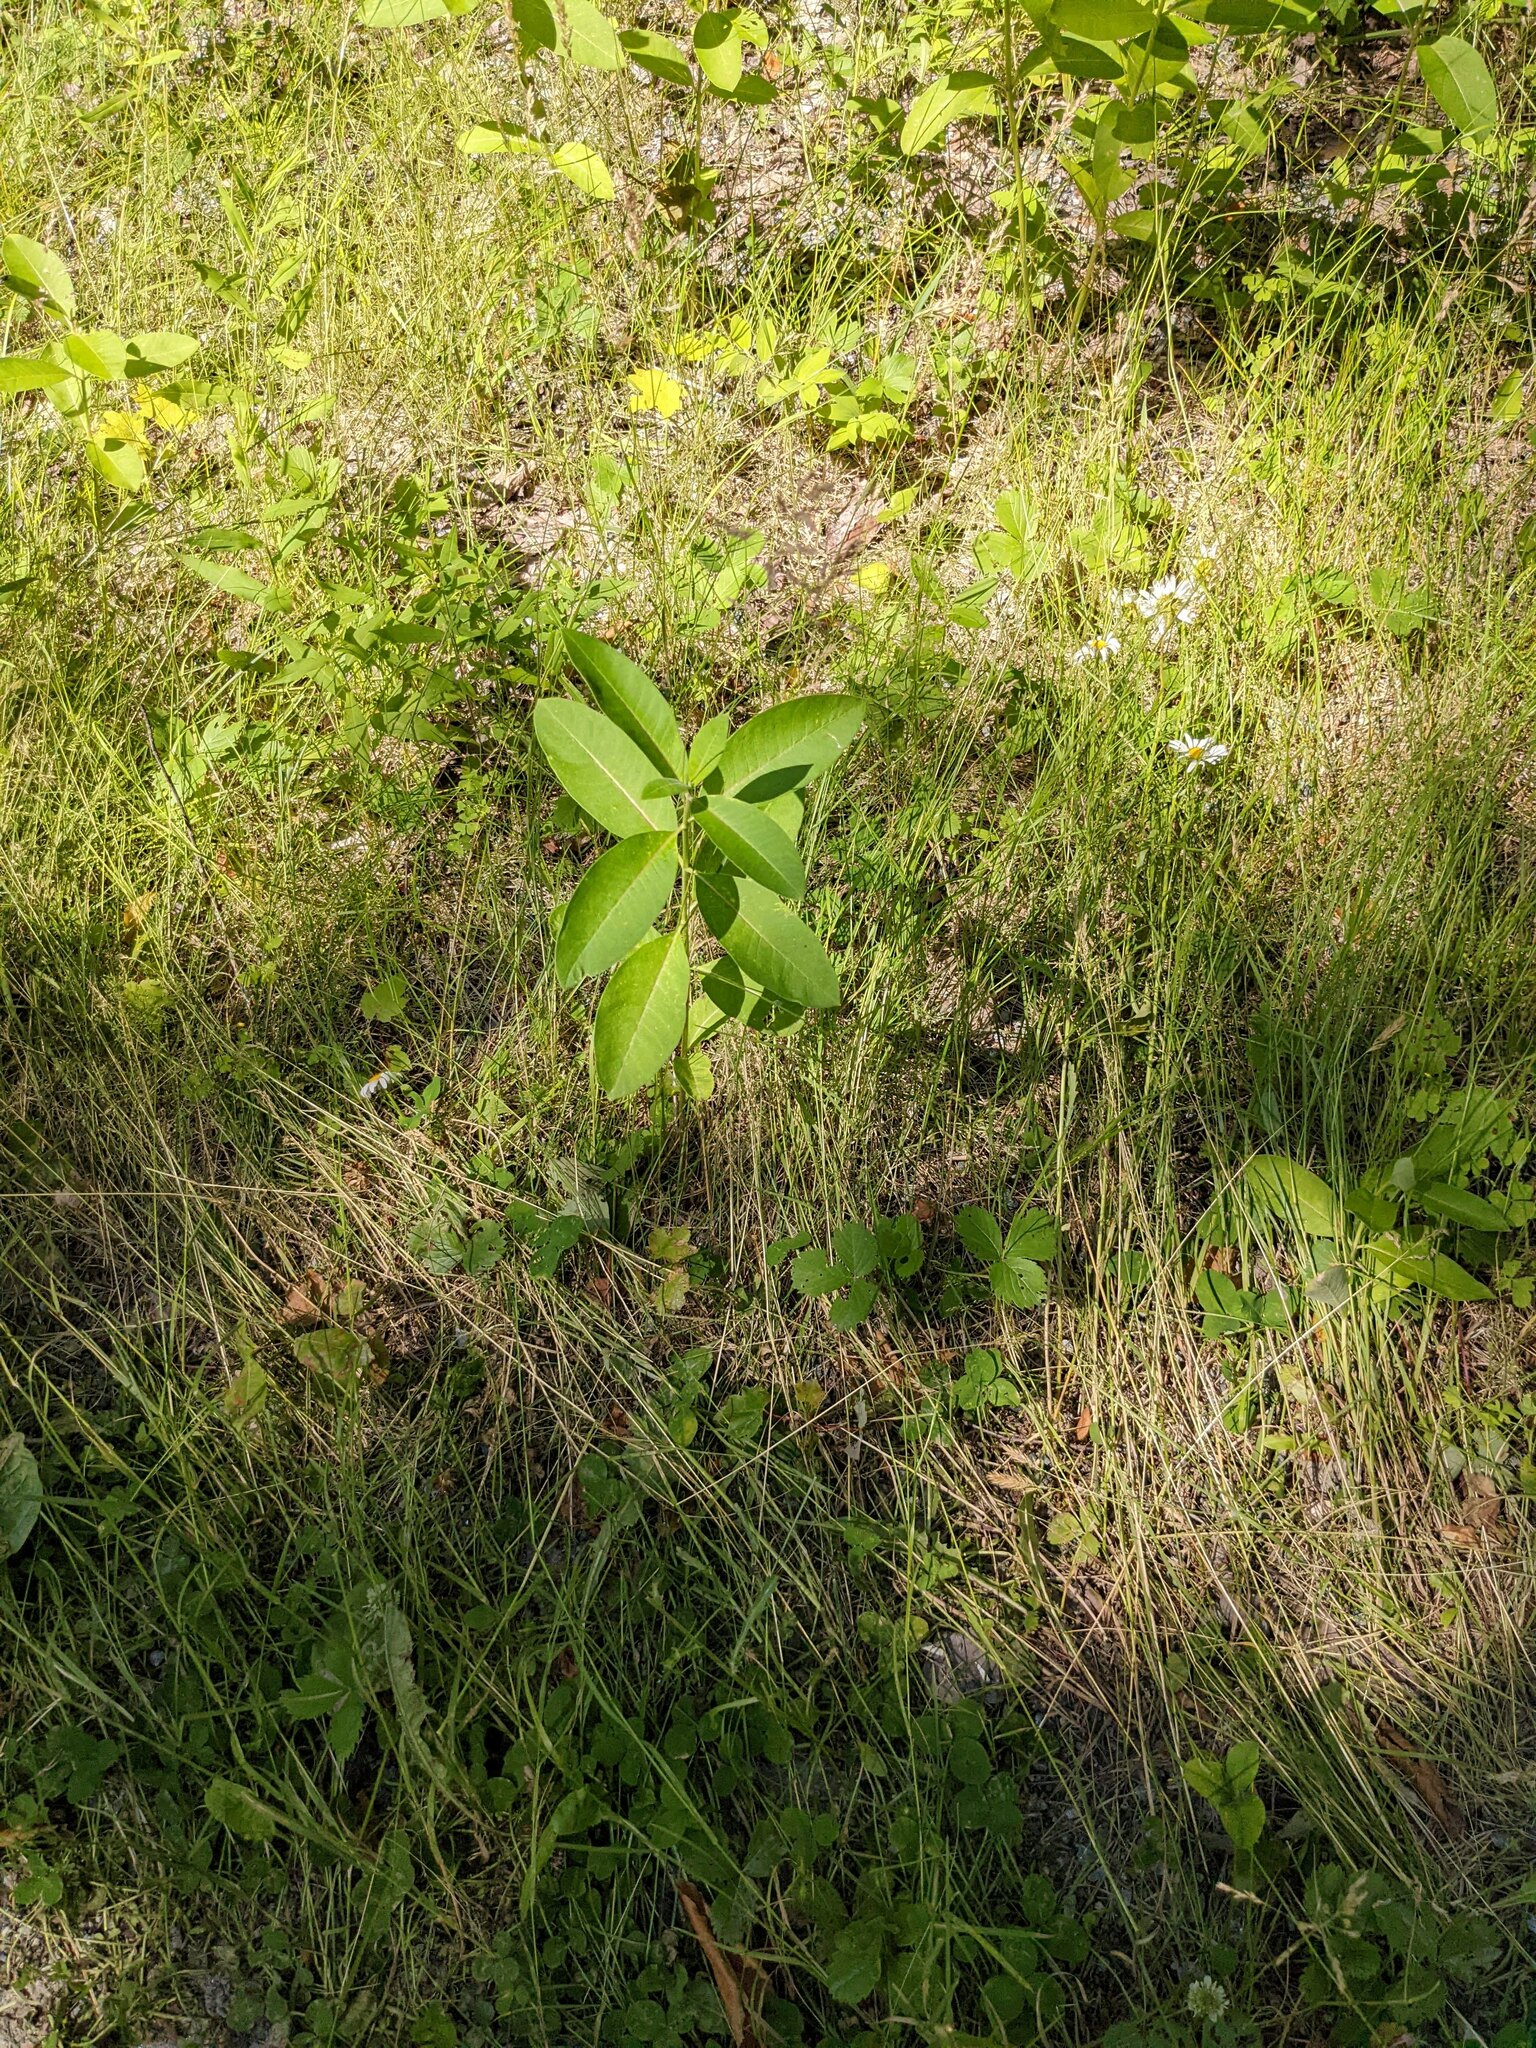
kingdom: Plantae
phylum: Tracheophyta
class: Magnoliopsida
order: Gentianales
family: Apocynaceae
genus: Asclepias
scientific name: Asclepias syriaca
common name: Common milkweed
